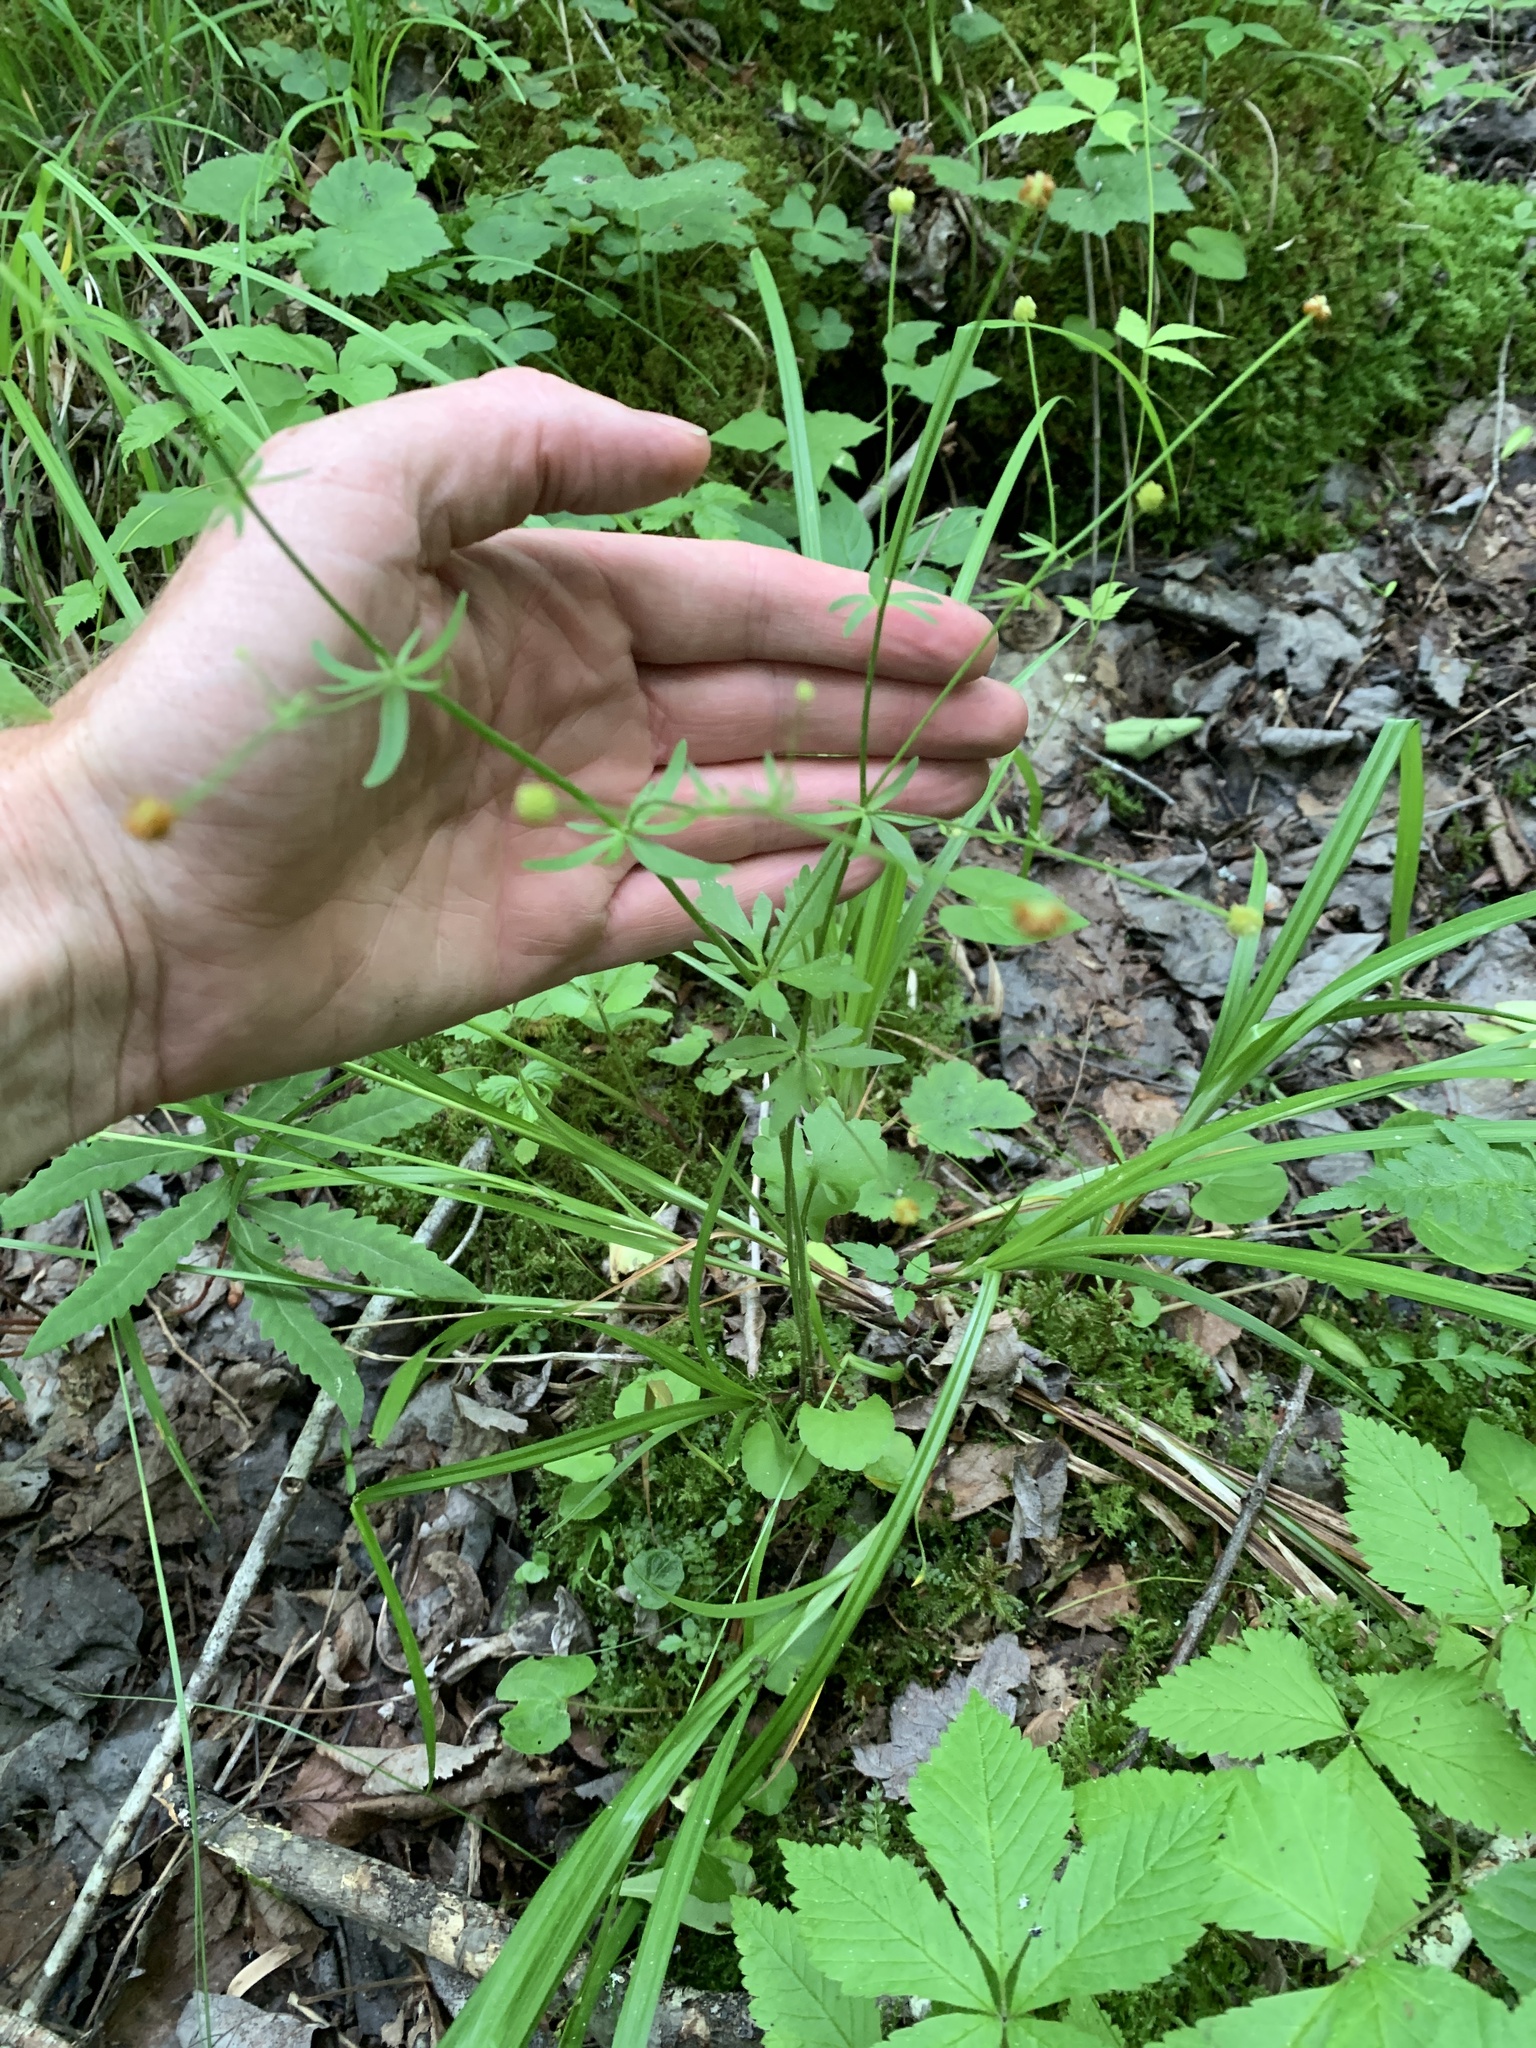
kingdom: Plantae
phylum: Tracheophyta
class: Magnoliopsida
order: Ranunculales
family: Ranunculaceae
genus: Ranunculus
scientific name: Ranunculus abortivus
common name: Early wood buttercup
